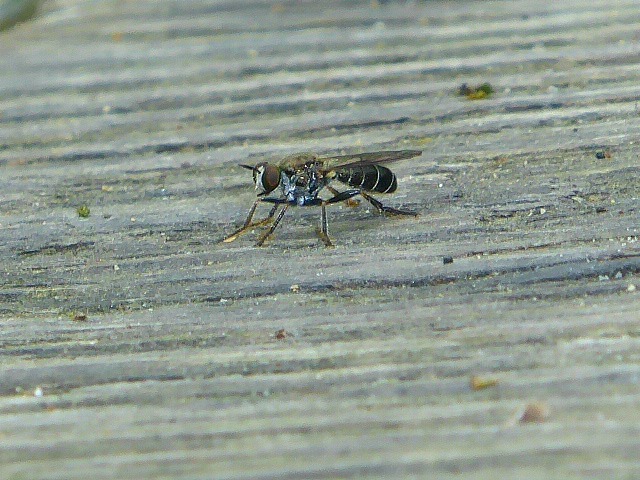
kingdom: Animalia
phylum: Arthropoda
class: Insecta
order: Diptera
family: Asilidae
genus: Atomosia
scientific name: Atomosia puella
